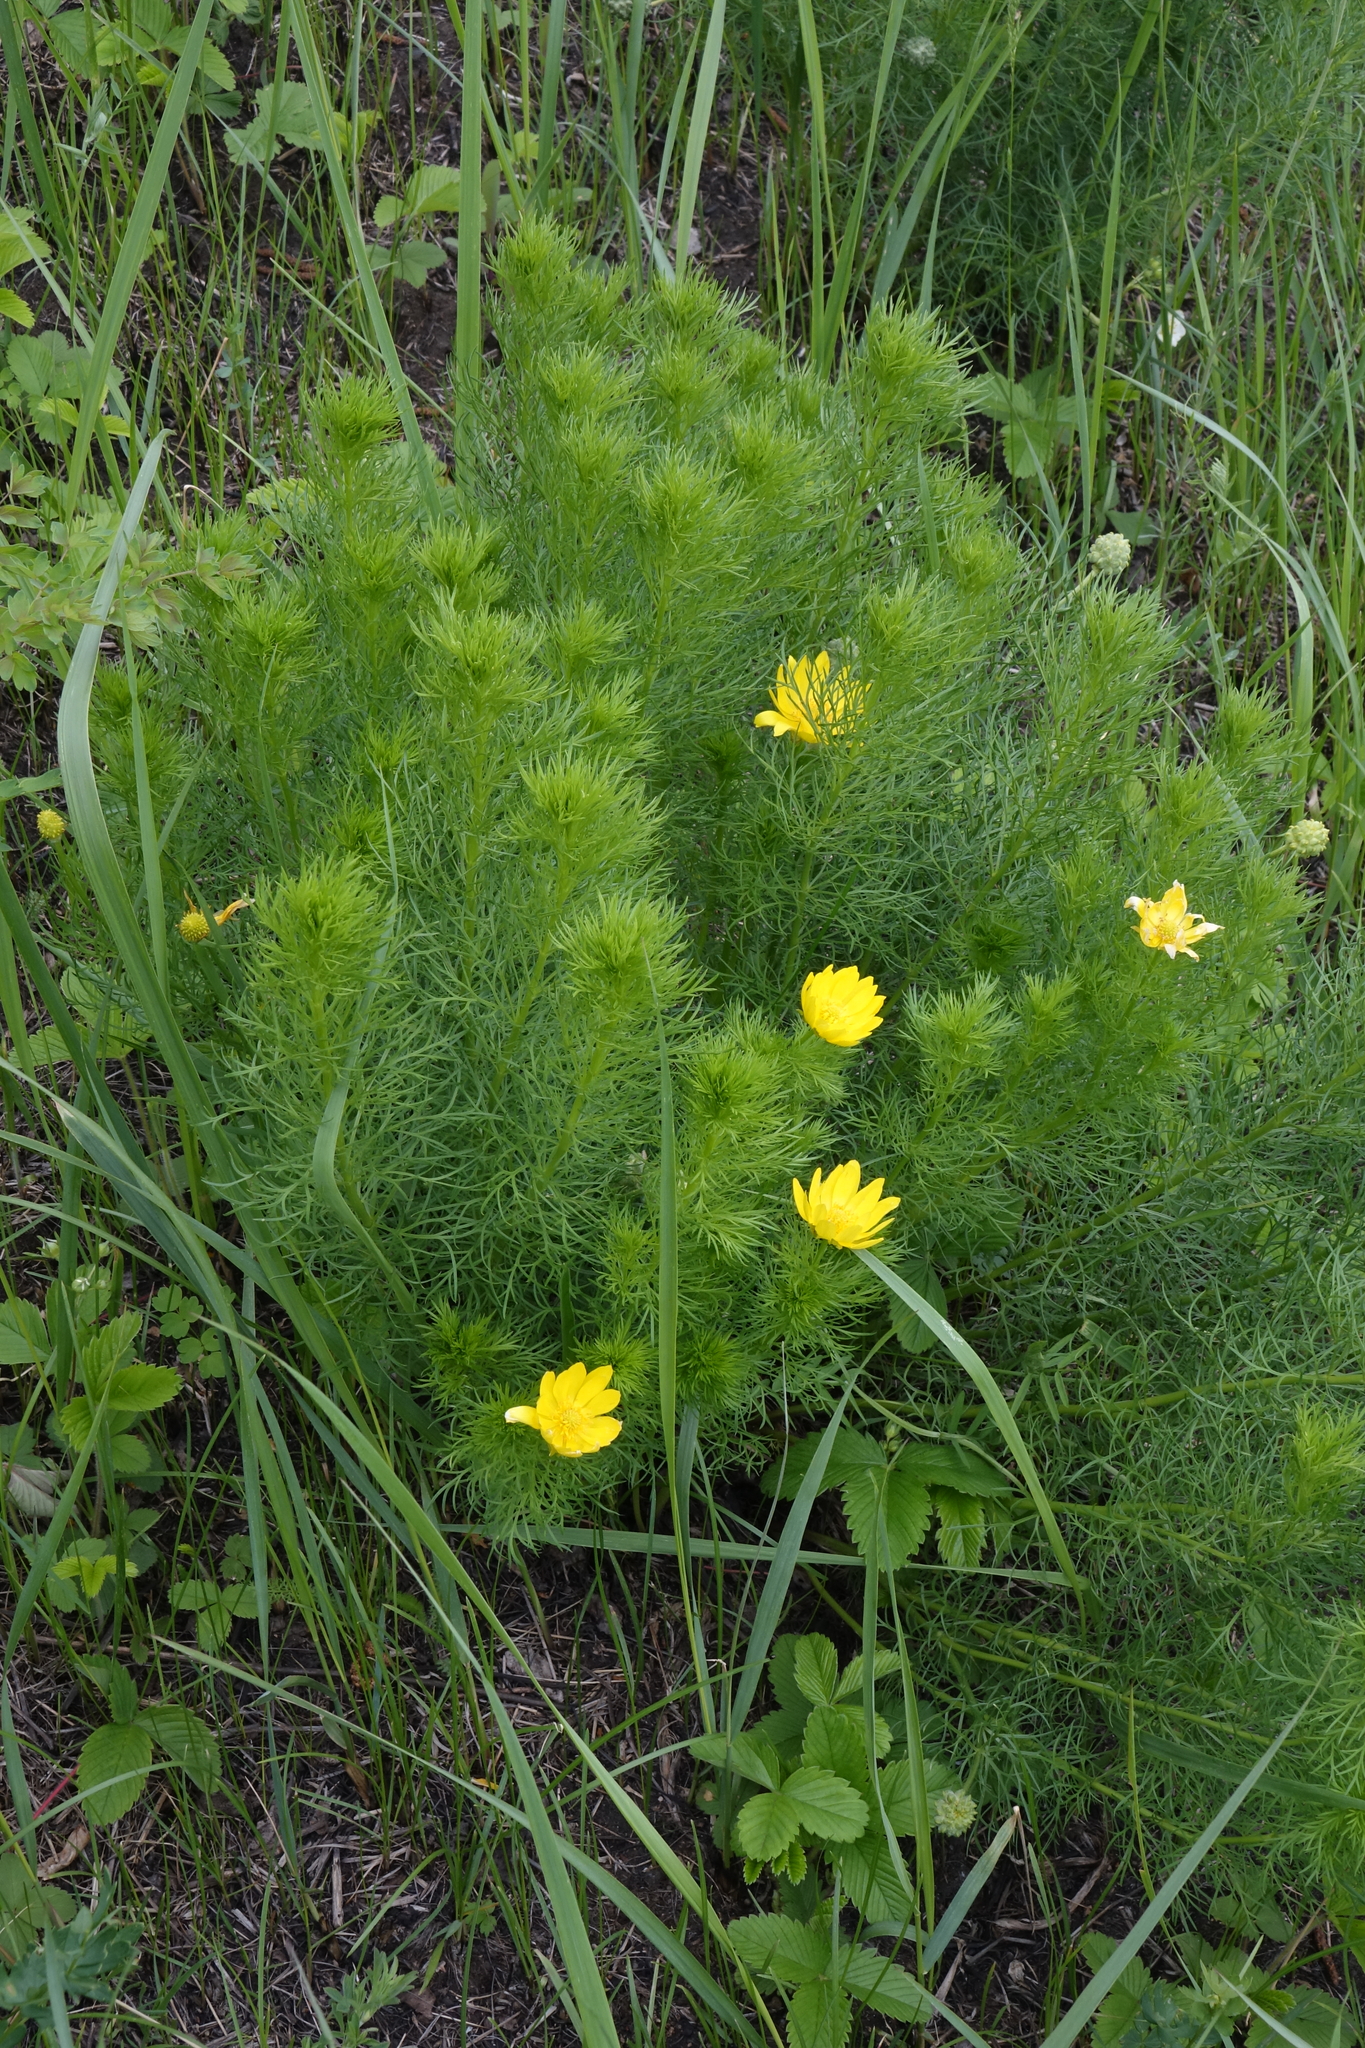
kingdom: Plantae
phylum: Tracheophyta
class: Magnoliopsida
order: Ranunculales
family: Ranunculaceae
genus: Adonis
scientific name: Adonis vernalis
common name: Yellow pheasants-eye
